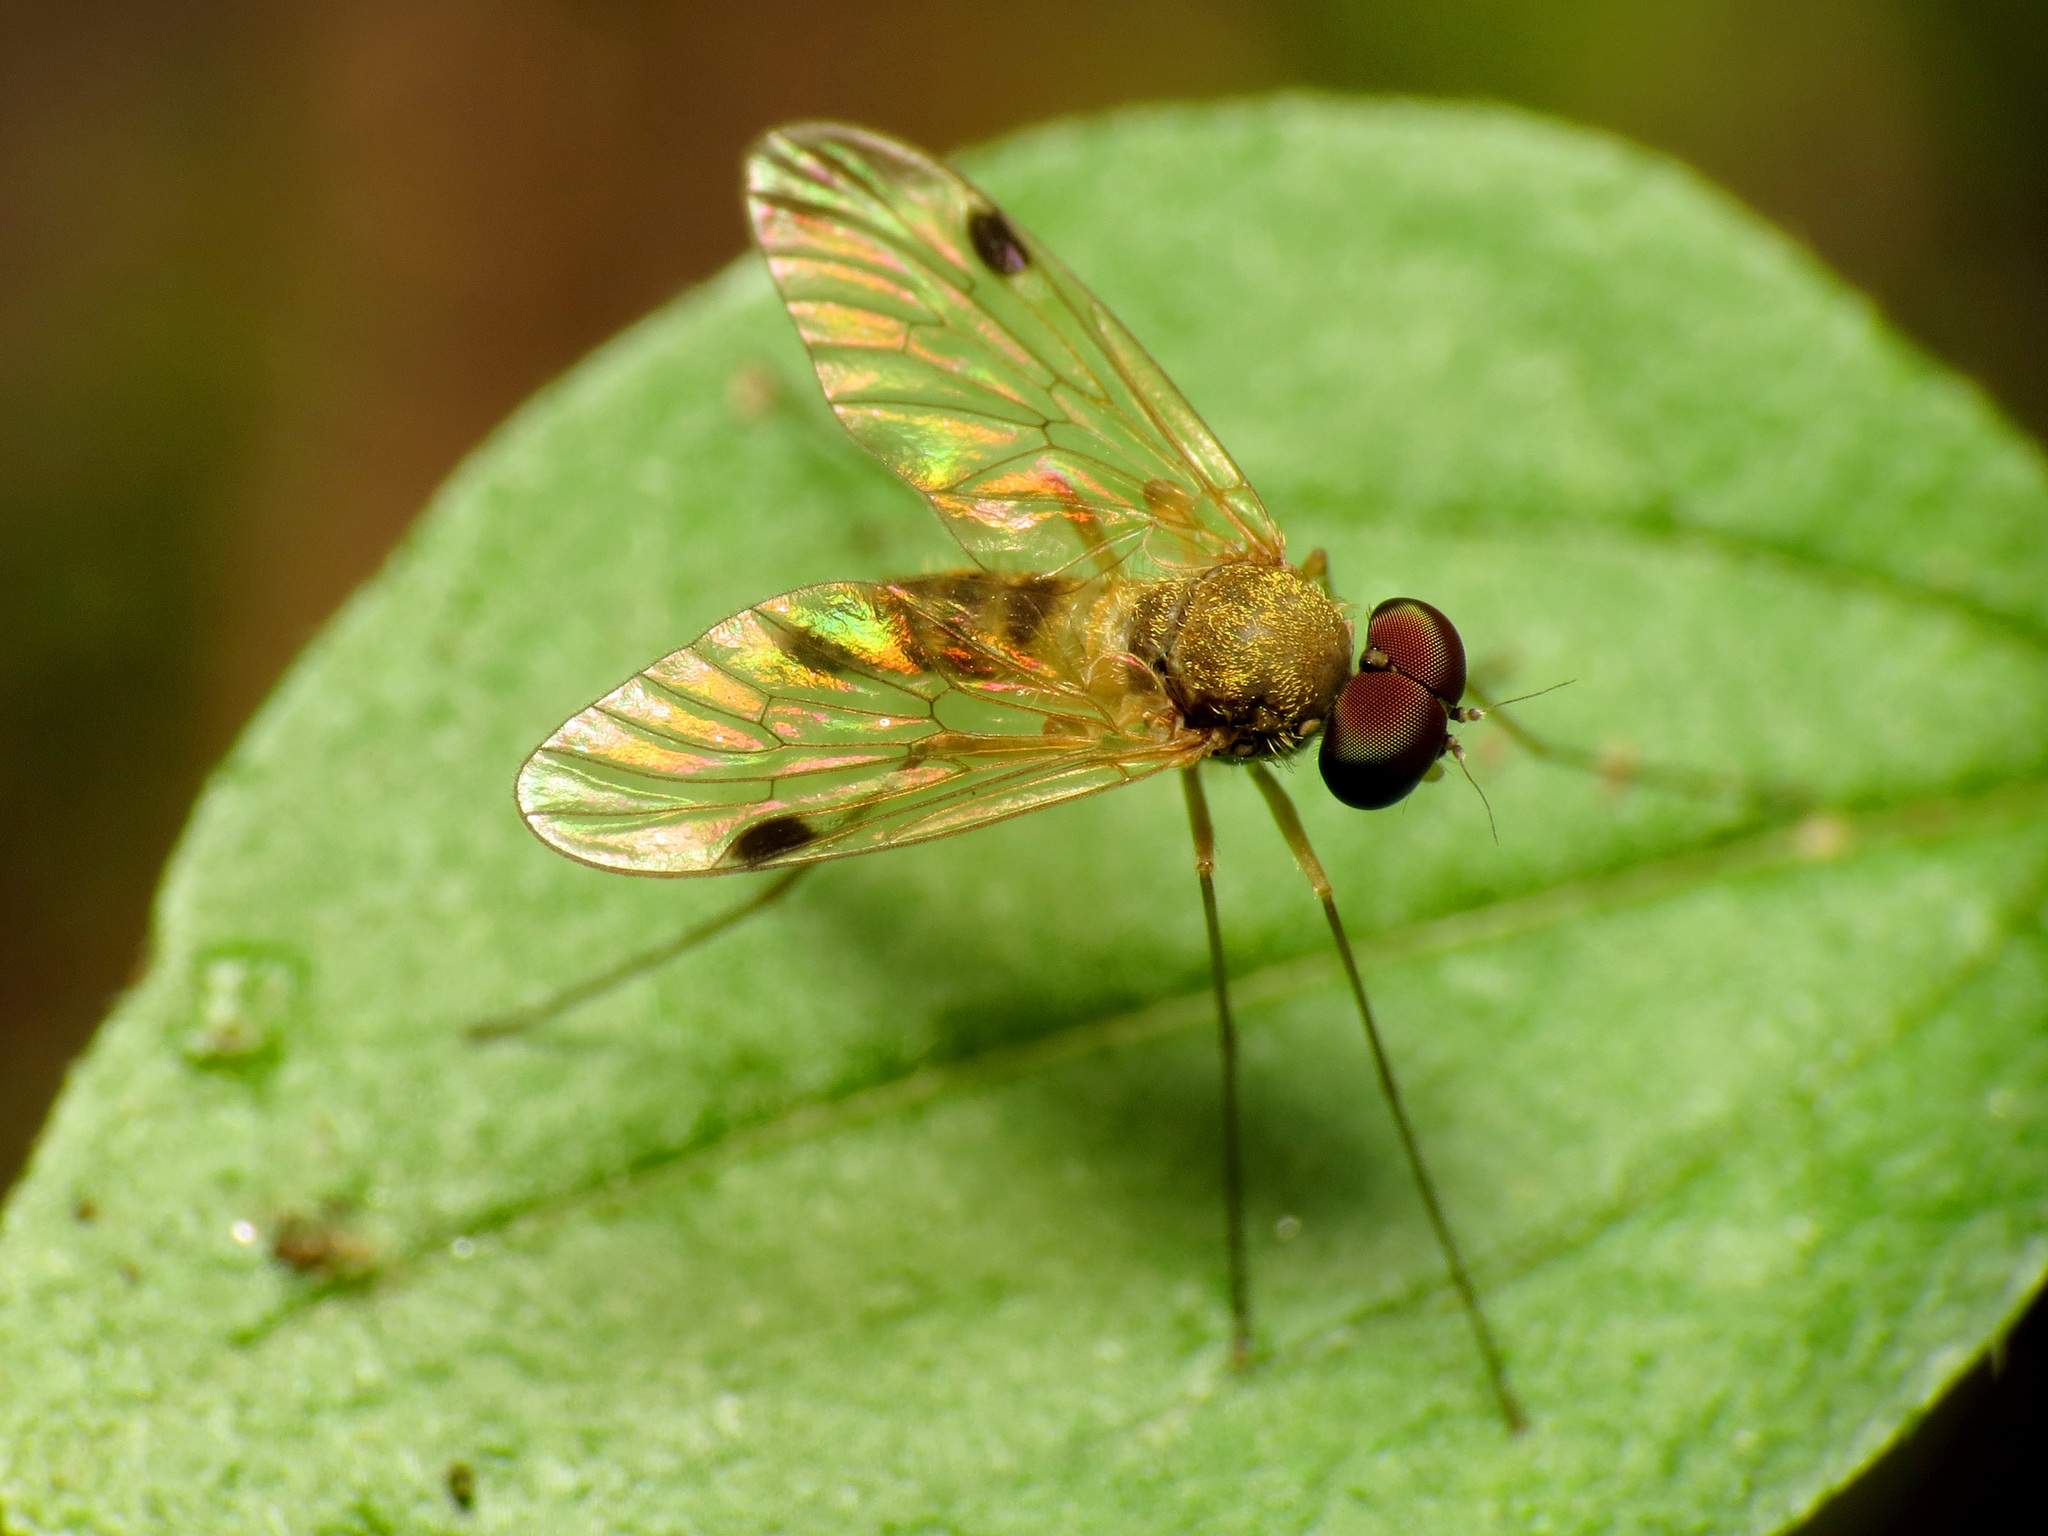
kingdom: Animalia
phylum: Arthropoda
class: Insecta
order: Diptera
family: Rhagionidae
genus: Chrysopilus
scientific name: Chrysopilus modestus
